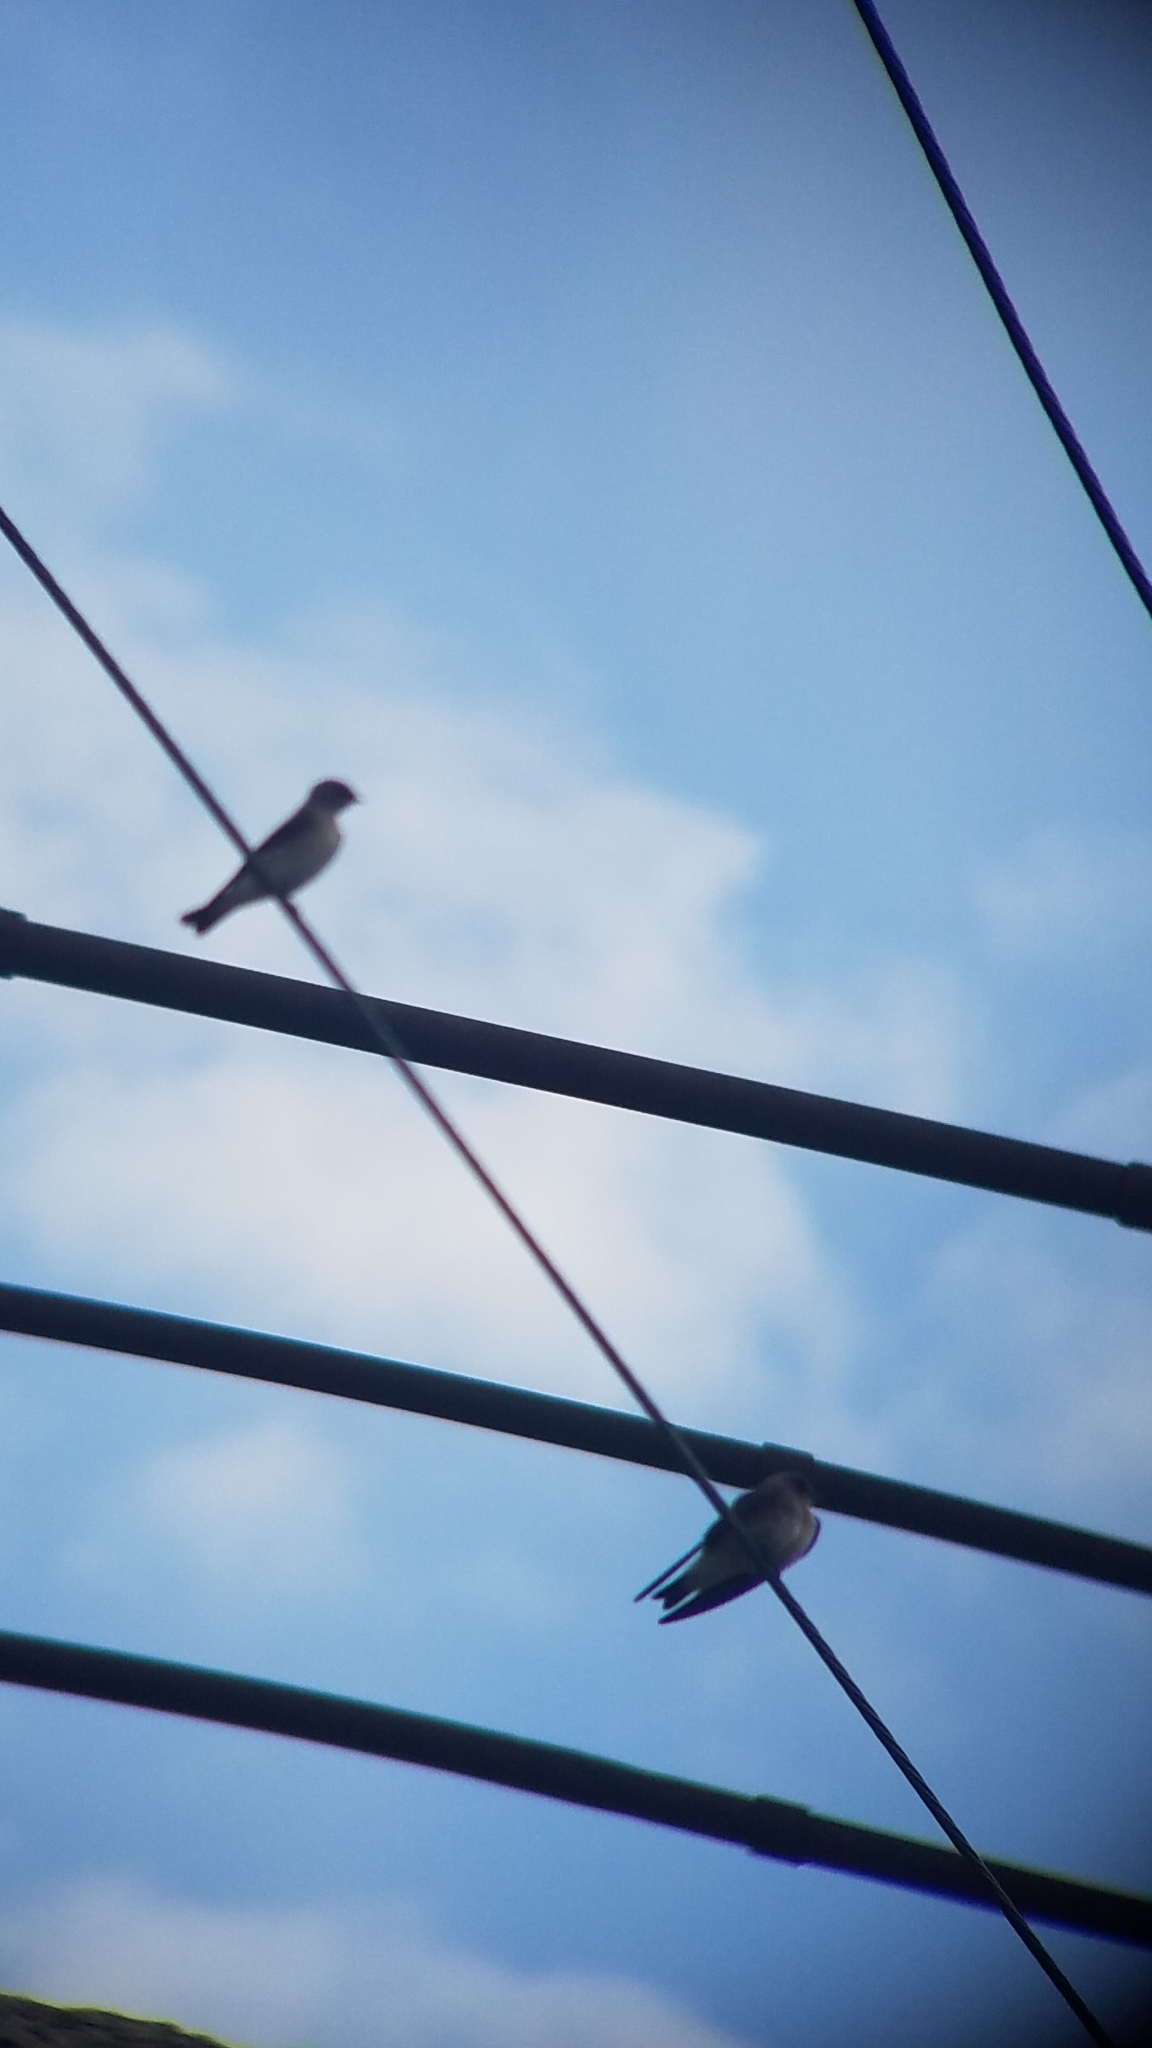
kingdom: Animalia
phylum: Chordata
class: Aves
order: Passeriformes
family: Hirundinidae
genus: Stelgidopteryx
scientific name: Stelgidopteryx serripennis
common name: Northern rough-winged swallow
